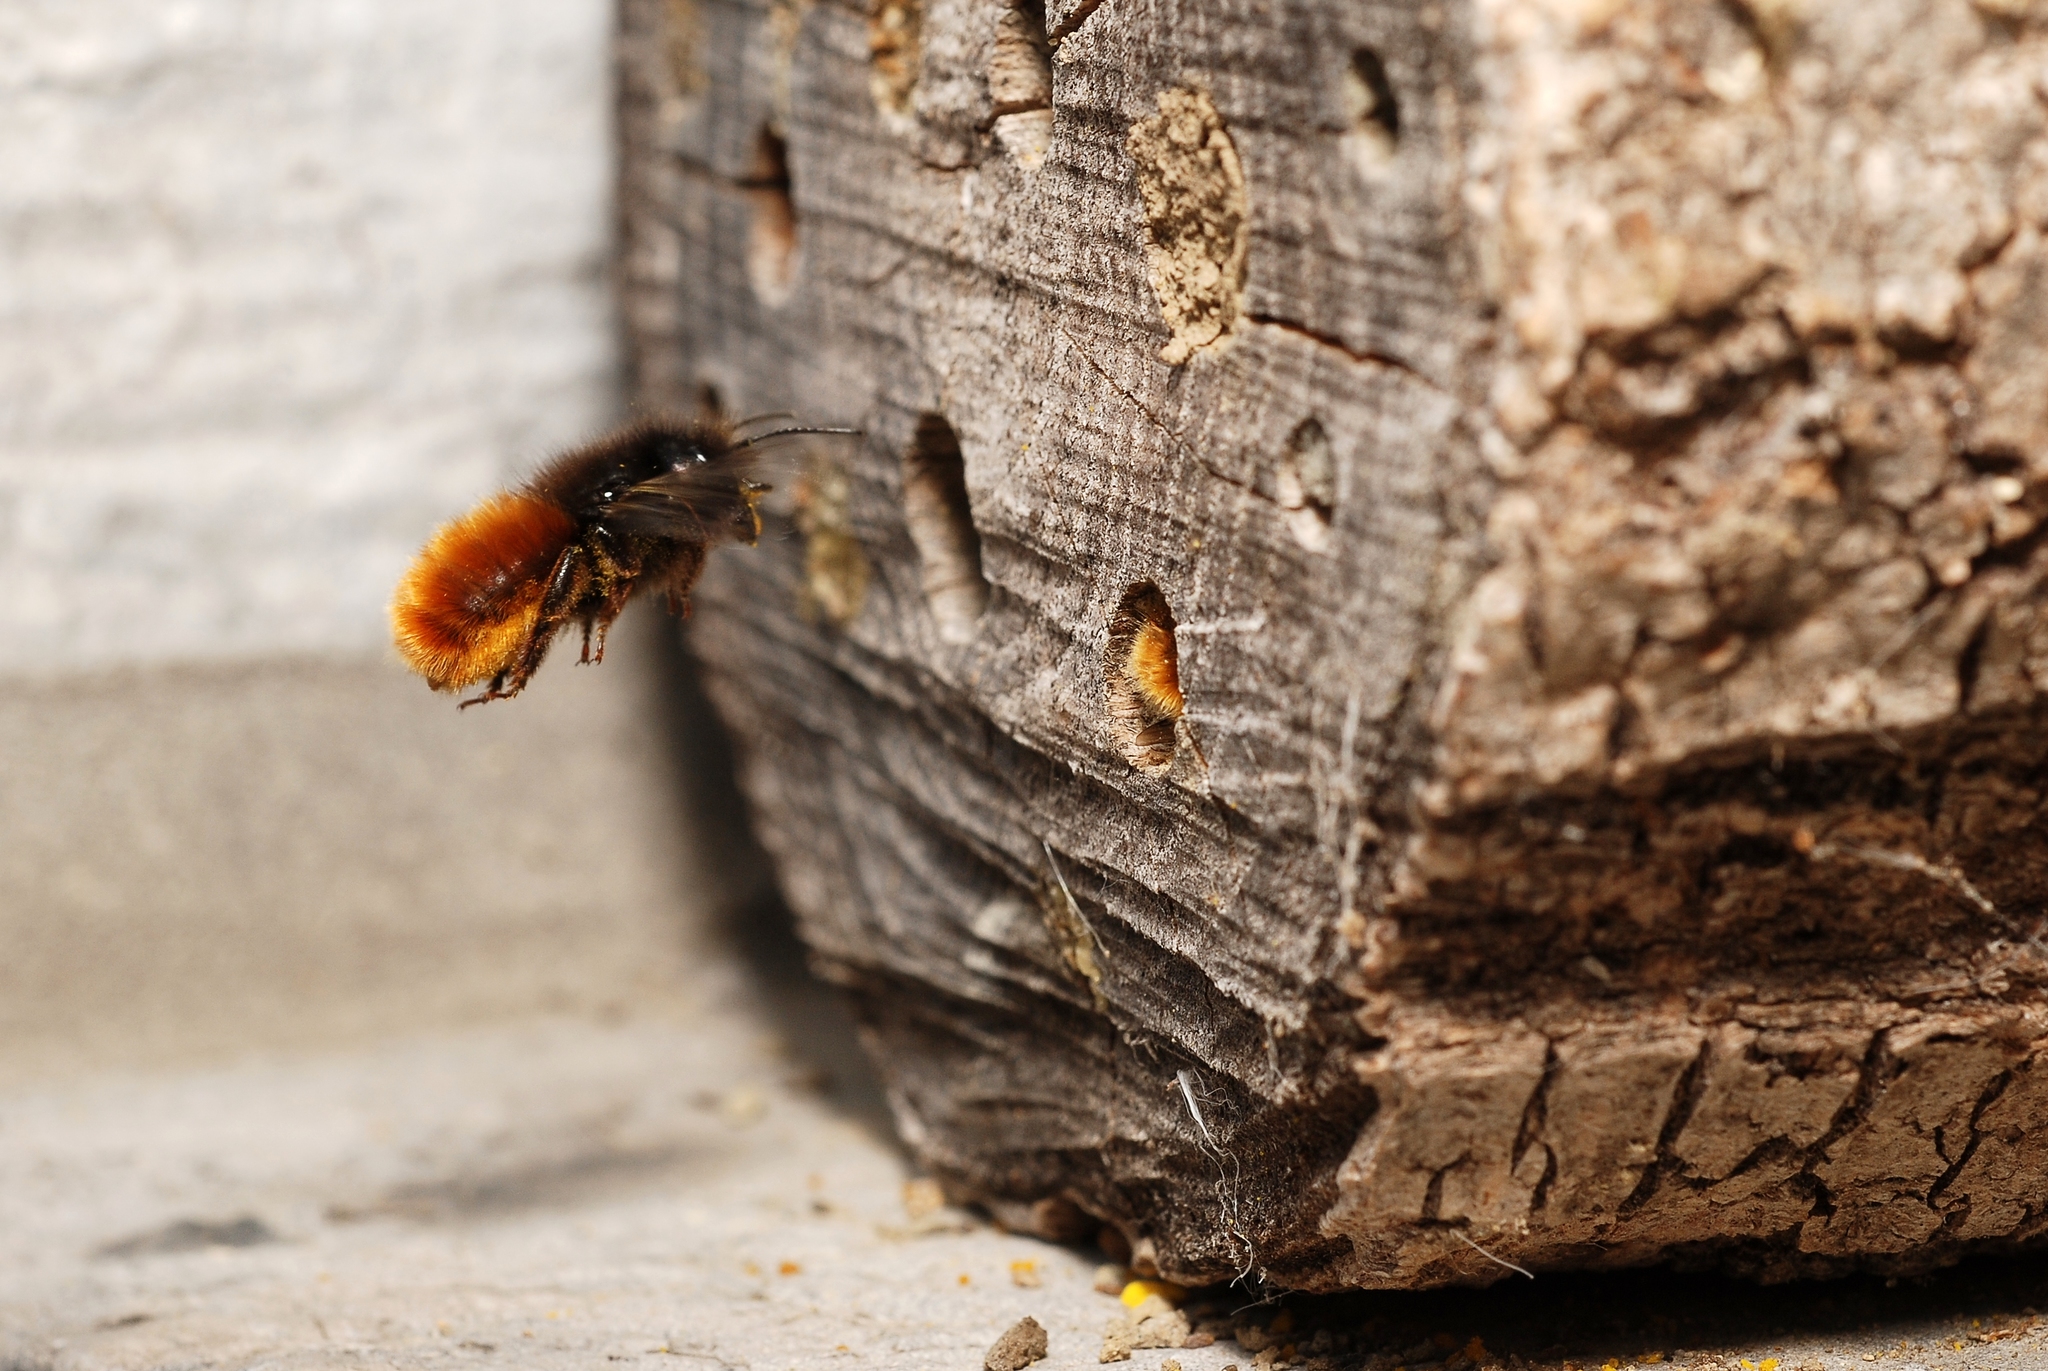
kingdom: Animalia
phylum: Arthropoda
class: Insecta
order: Hymenoptera
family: Megachilidae
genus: Osmia
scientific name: Osmia cornuta
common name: Mason bee
